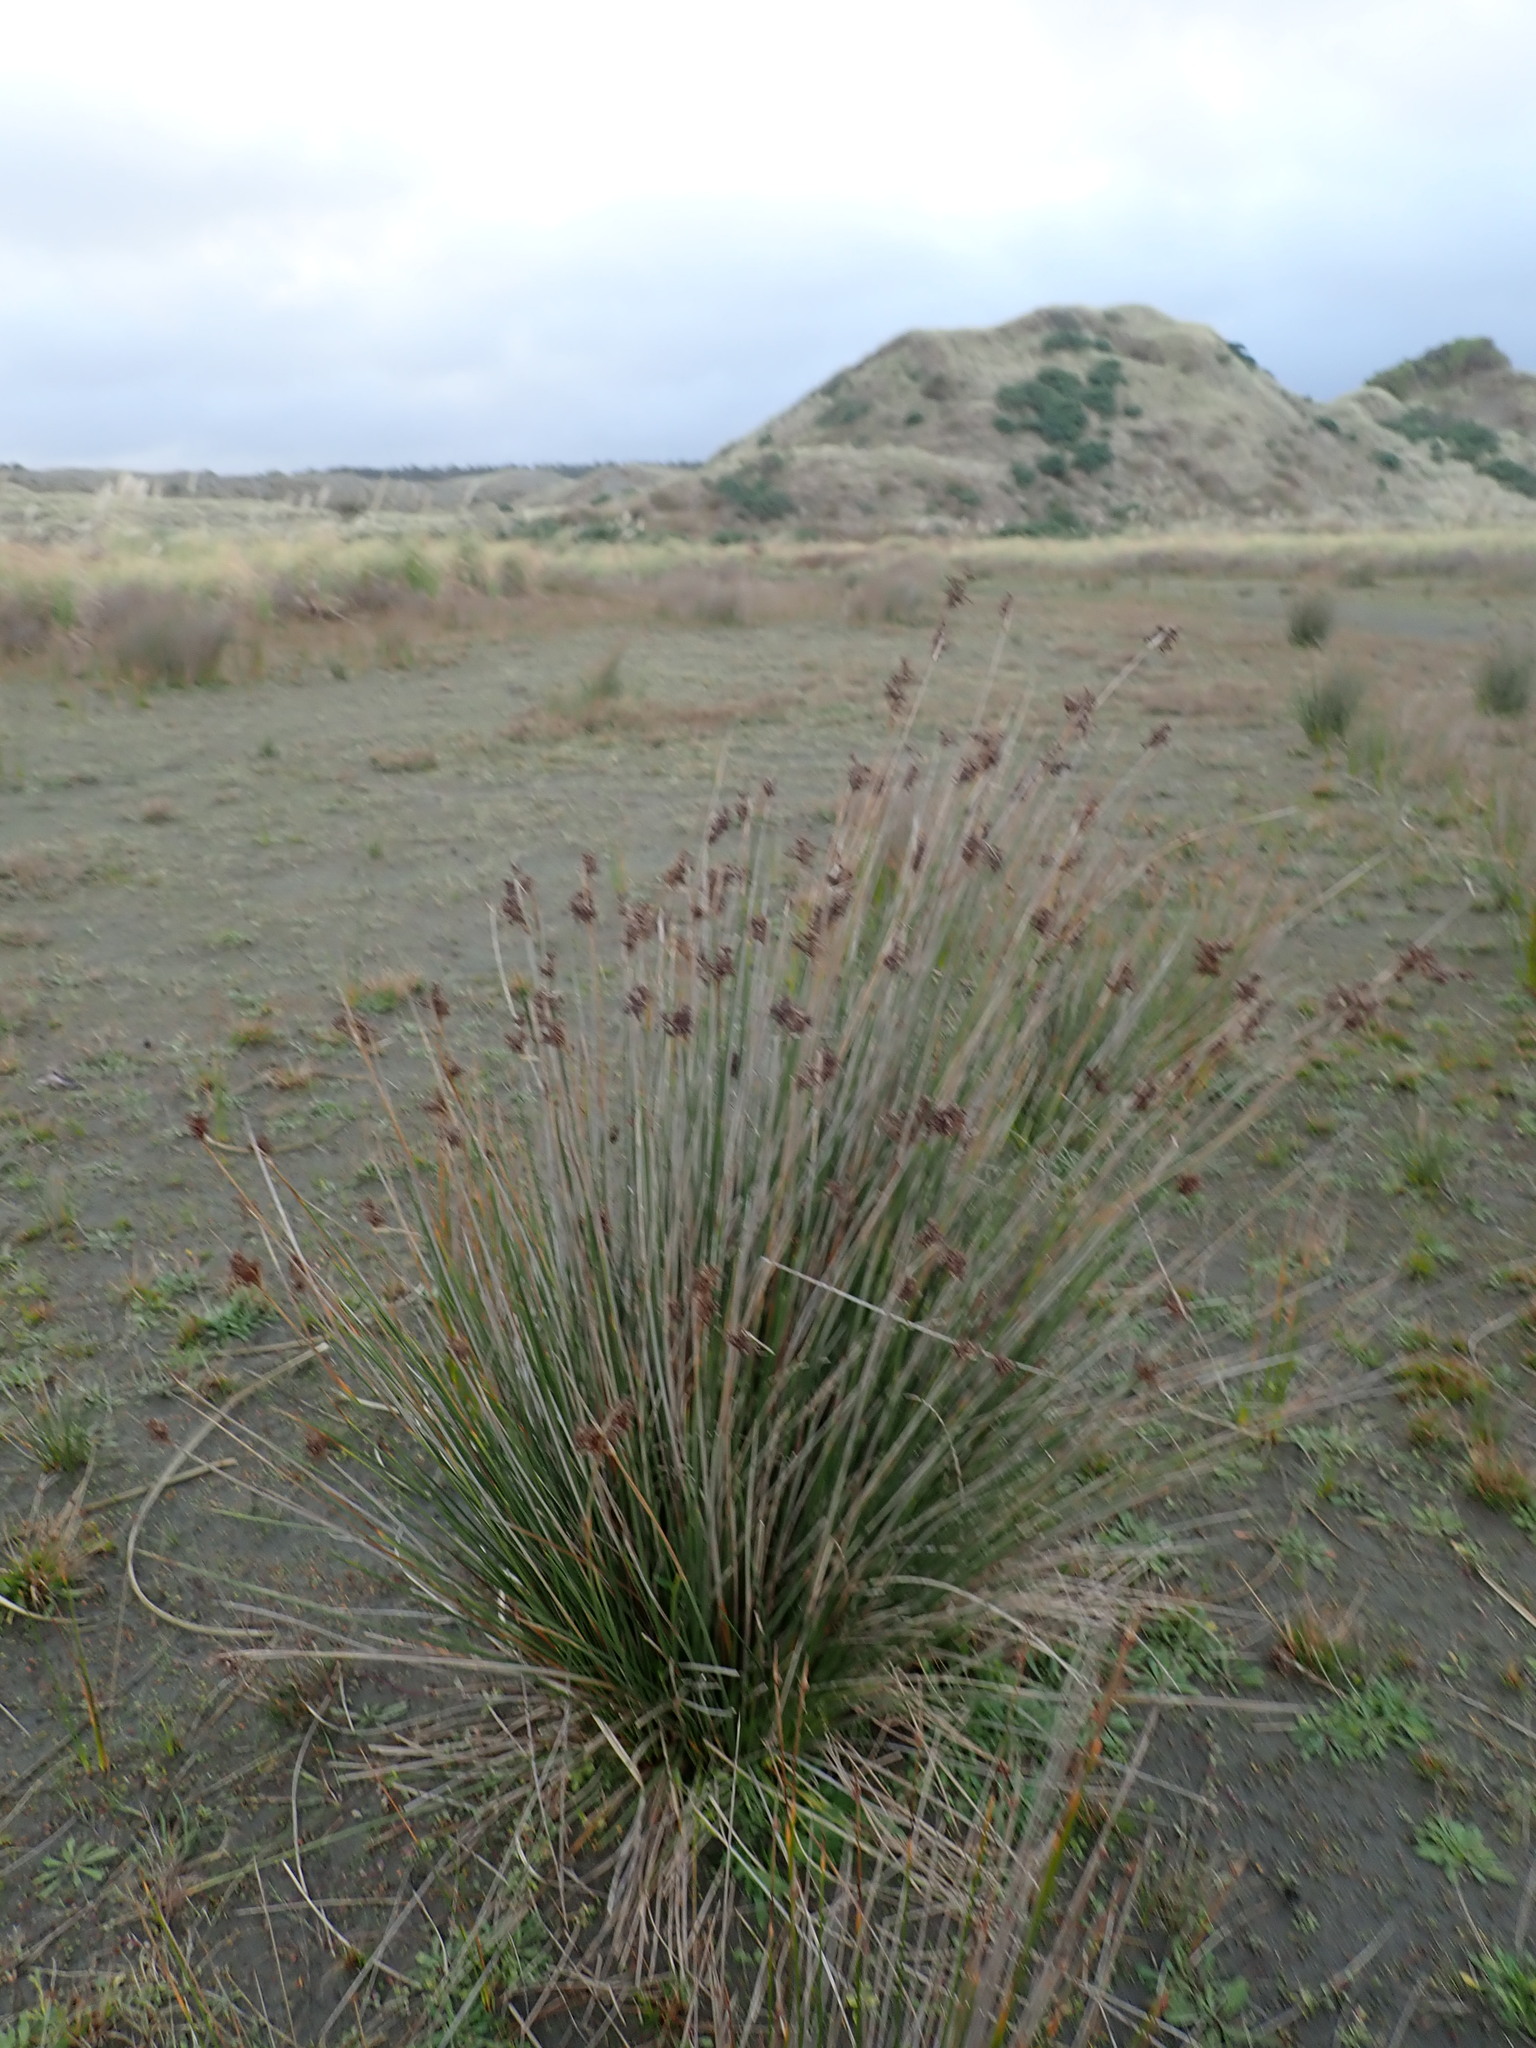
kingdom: Plantae
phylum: Tracheophyta
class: Liliopsida
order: Poales
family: Juncaceae
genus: Juncus
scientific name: Juncus acutus
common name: Sharp rush
